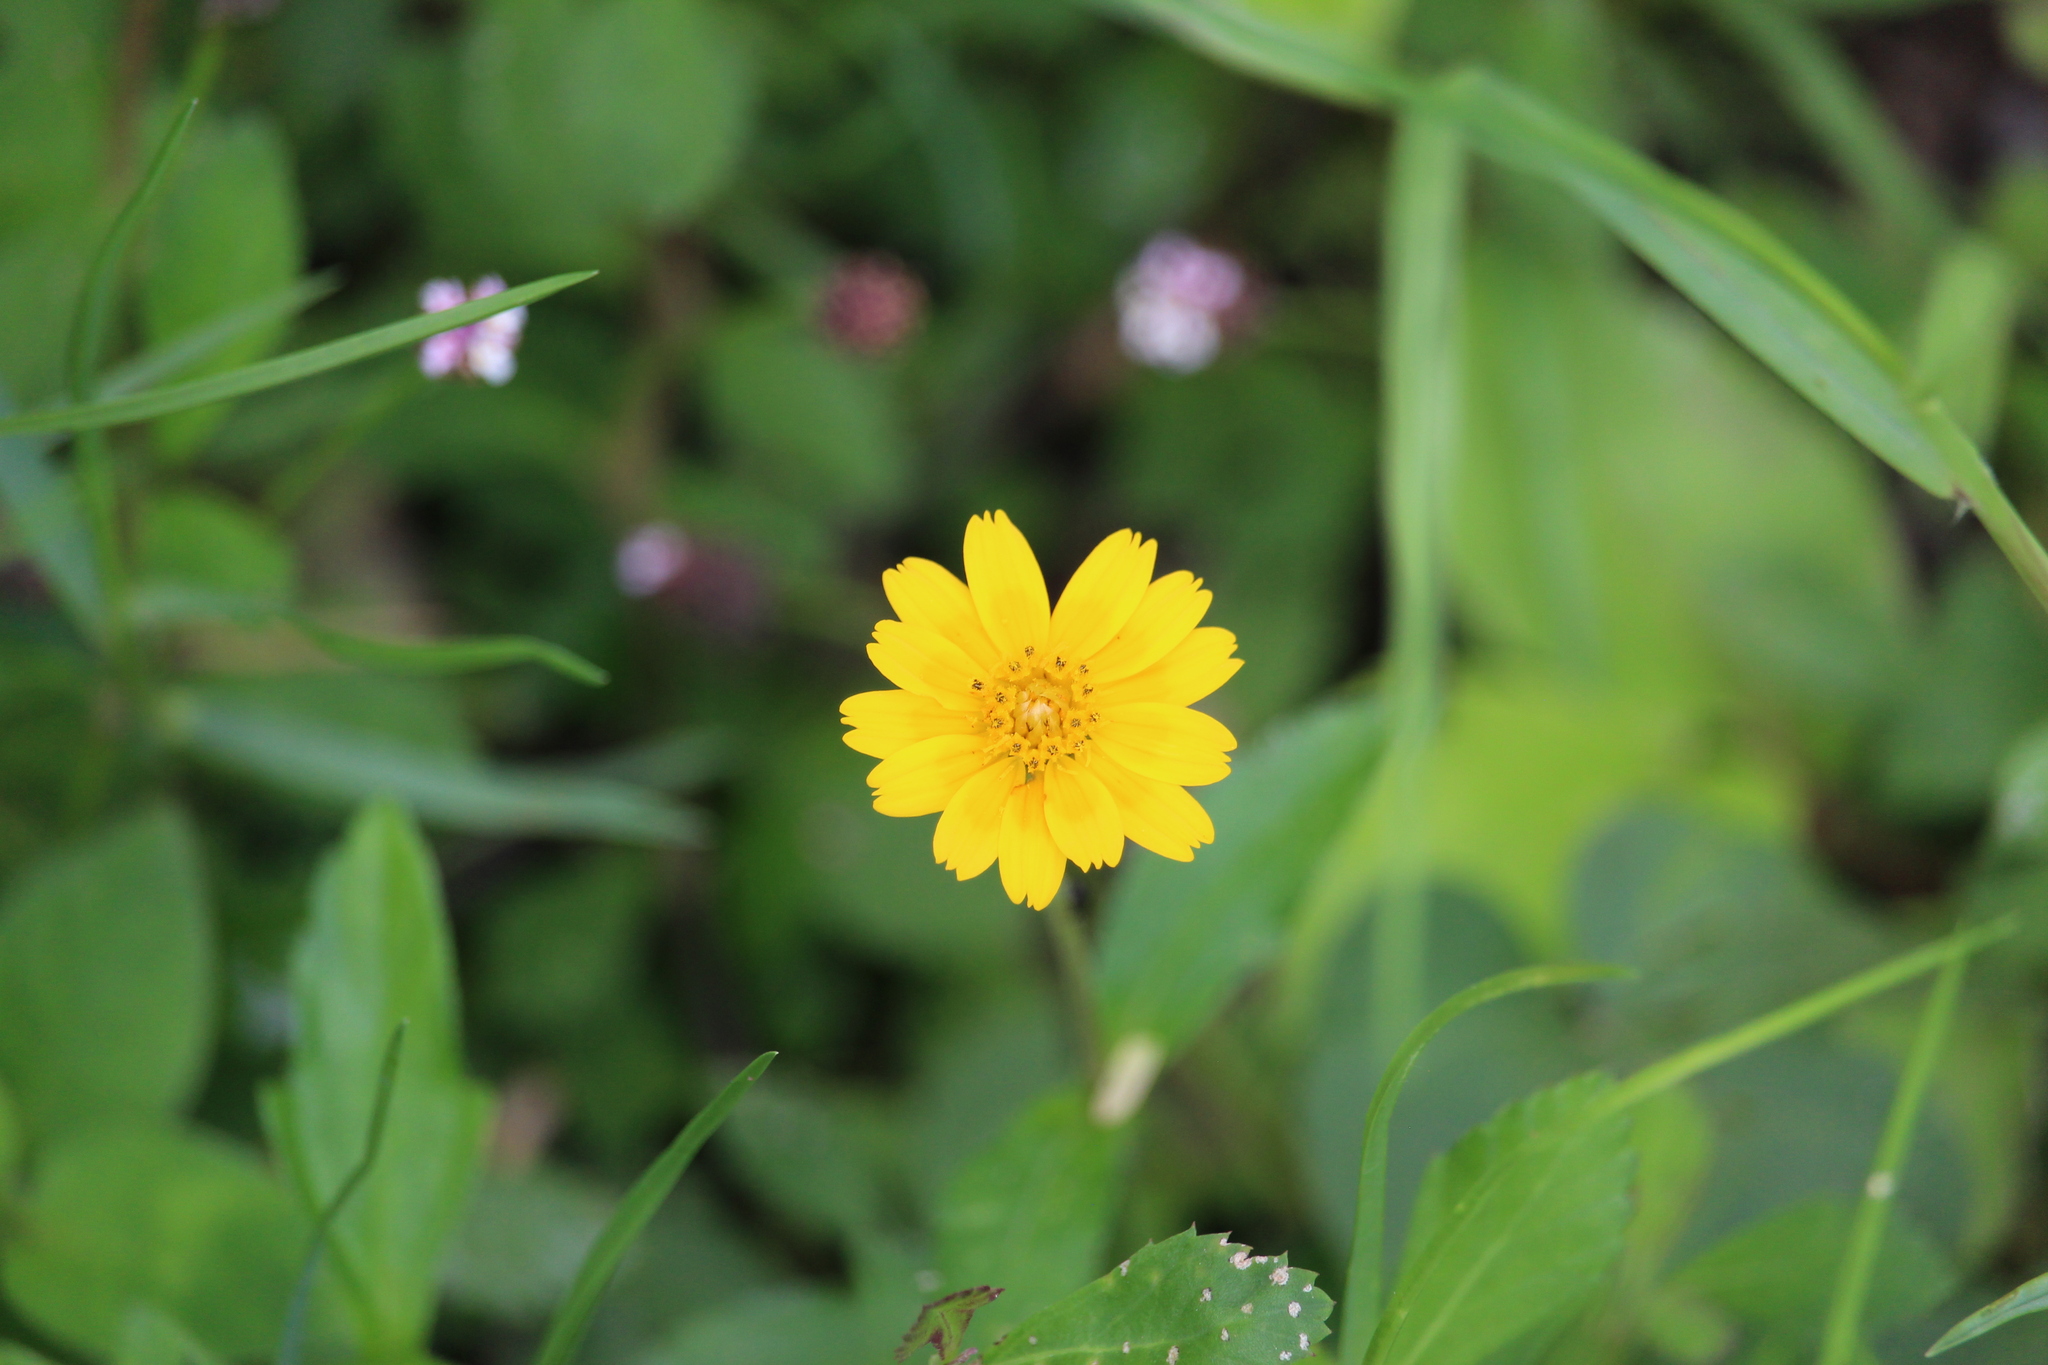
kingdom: Plantae
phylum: Tracheophyta
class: Magnoliopsida
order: Asterales
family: Asteraceae
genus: Sphagneticola
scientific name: Sphagneticola trilobata
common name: Bay biscayne creeping-oxeye
